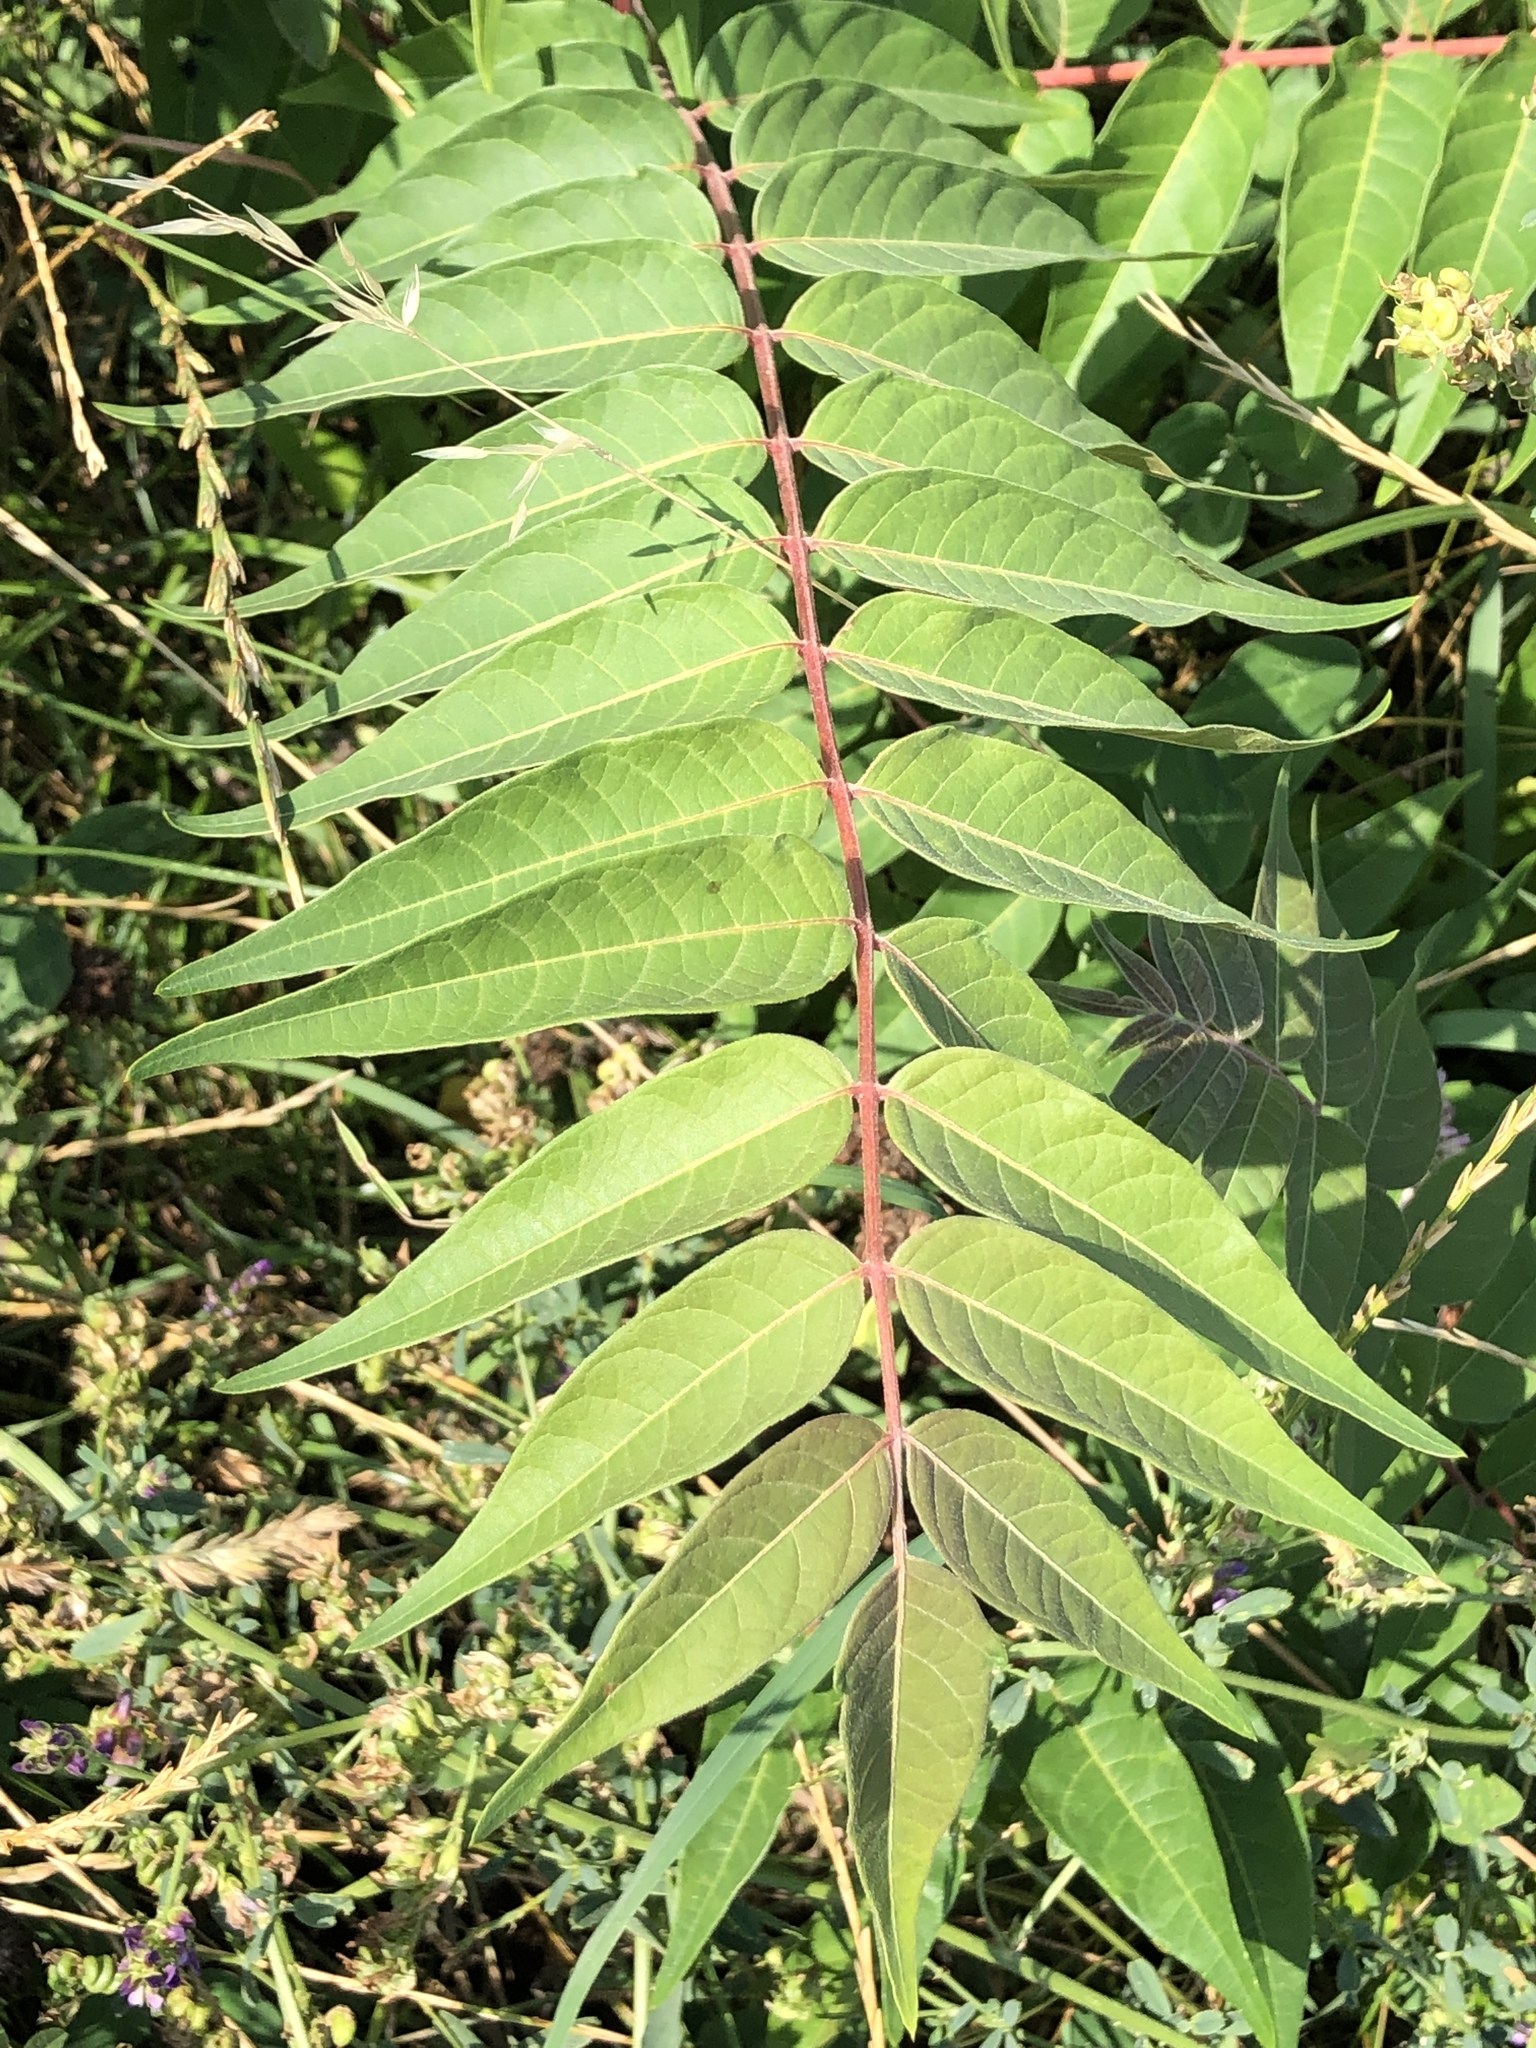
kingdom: Plantae
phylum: Tracheophyta
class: Magnoliopsida
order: Sapindales
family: Simaroubaceae
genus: Ailanthus
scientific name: Ailanthus altissima
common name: Tree-of-heaven
